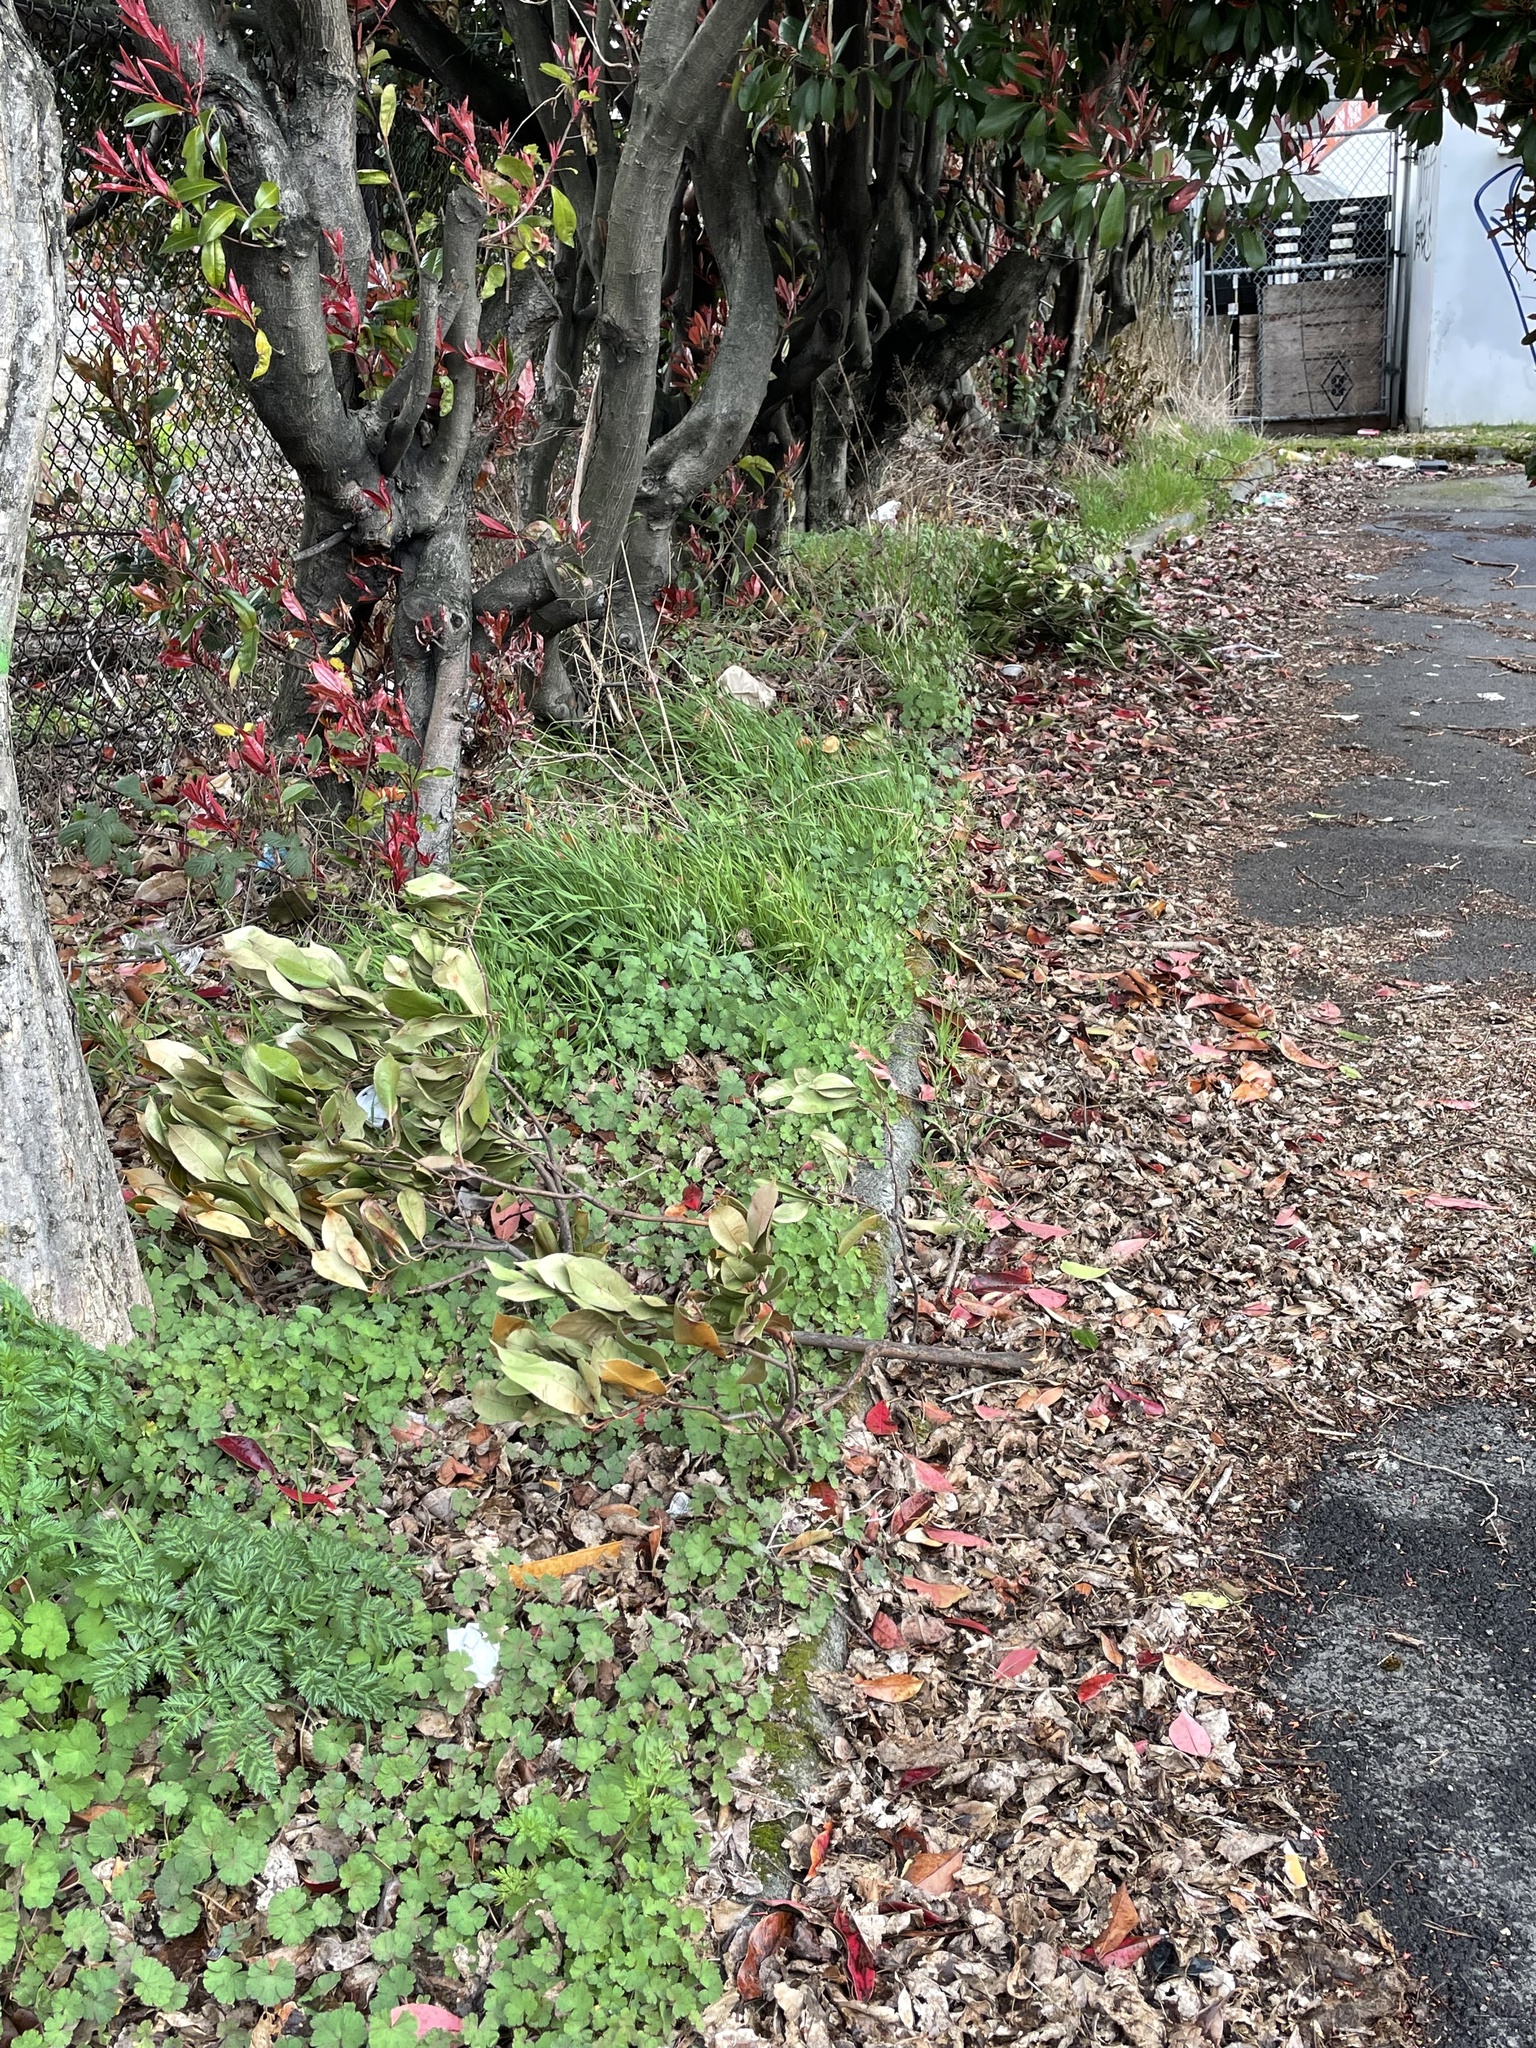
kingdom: Plantae
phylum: Tracheophyta
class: Magnoliopsida
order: Apiales
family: Apiaceae
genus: Conium
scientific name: Conium maculatum
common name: Hemlock
